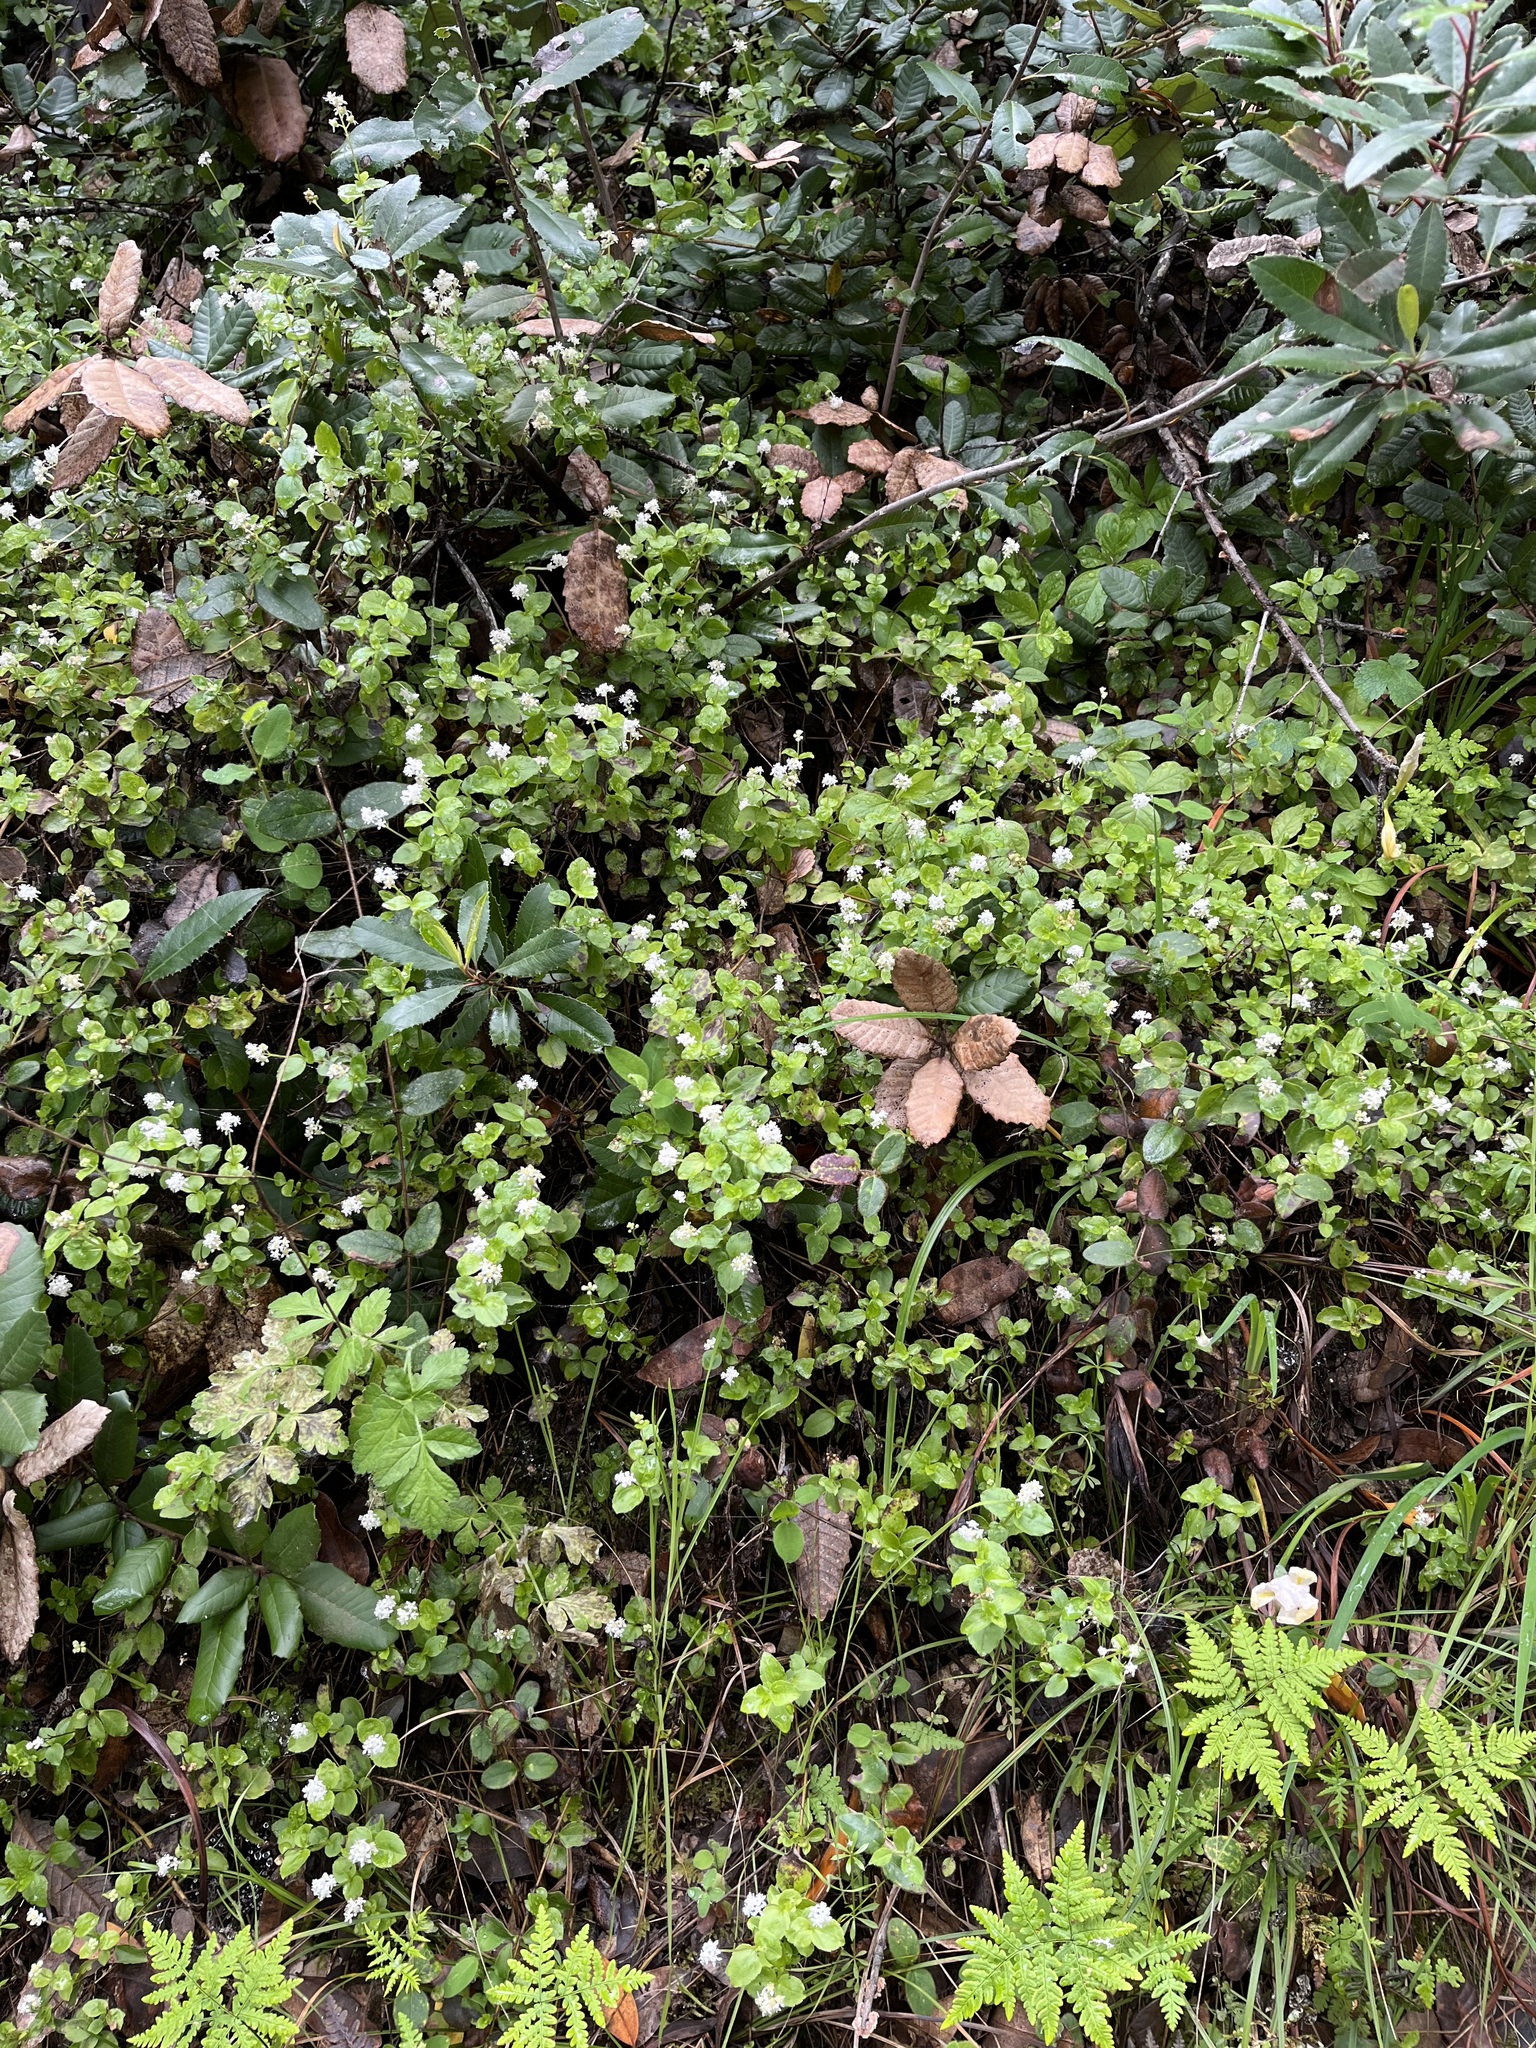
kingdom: Plantae
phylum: Tracheophyta
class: Magnoliopsida
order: Cornales
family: Hydrangeaceae
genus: Whipplea
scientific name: Whipplea modesta
